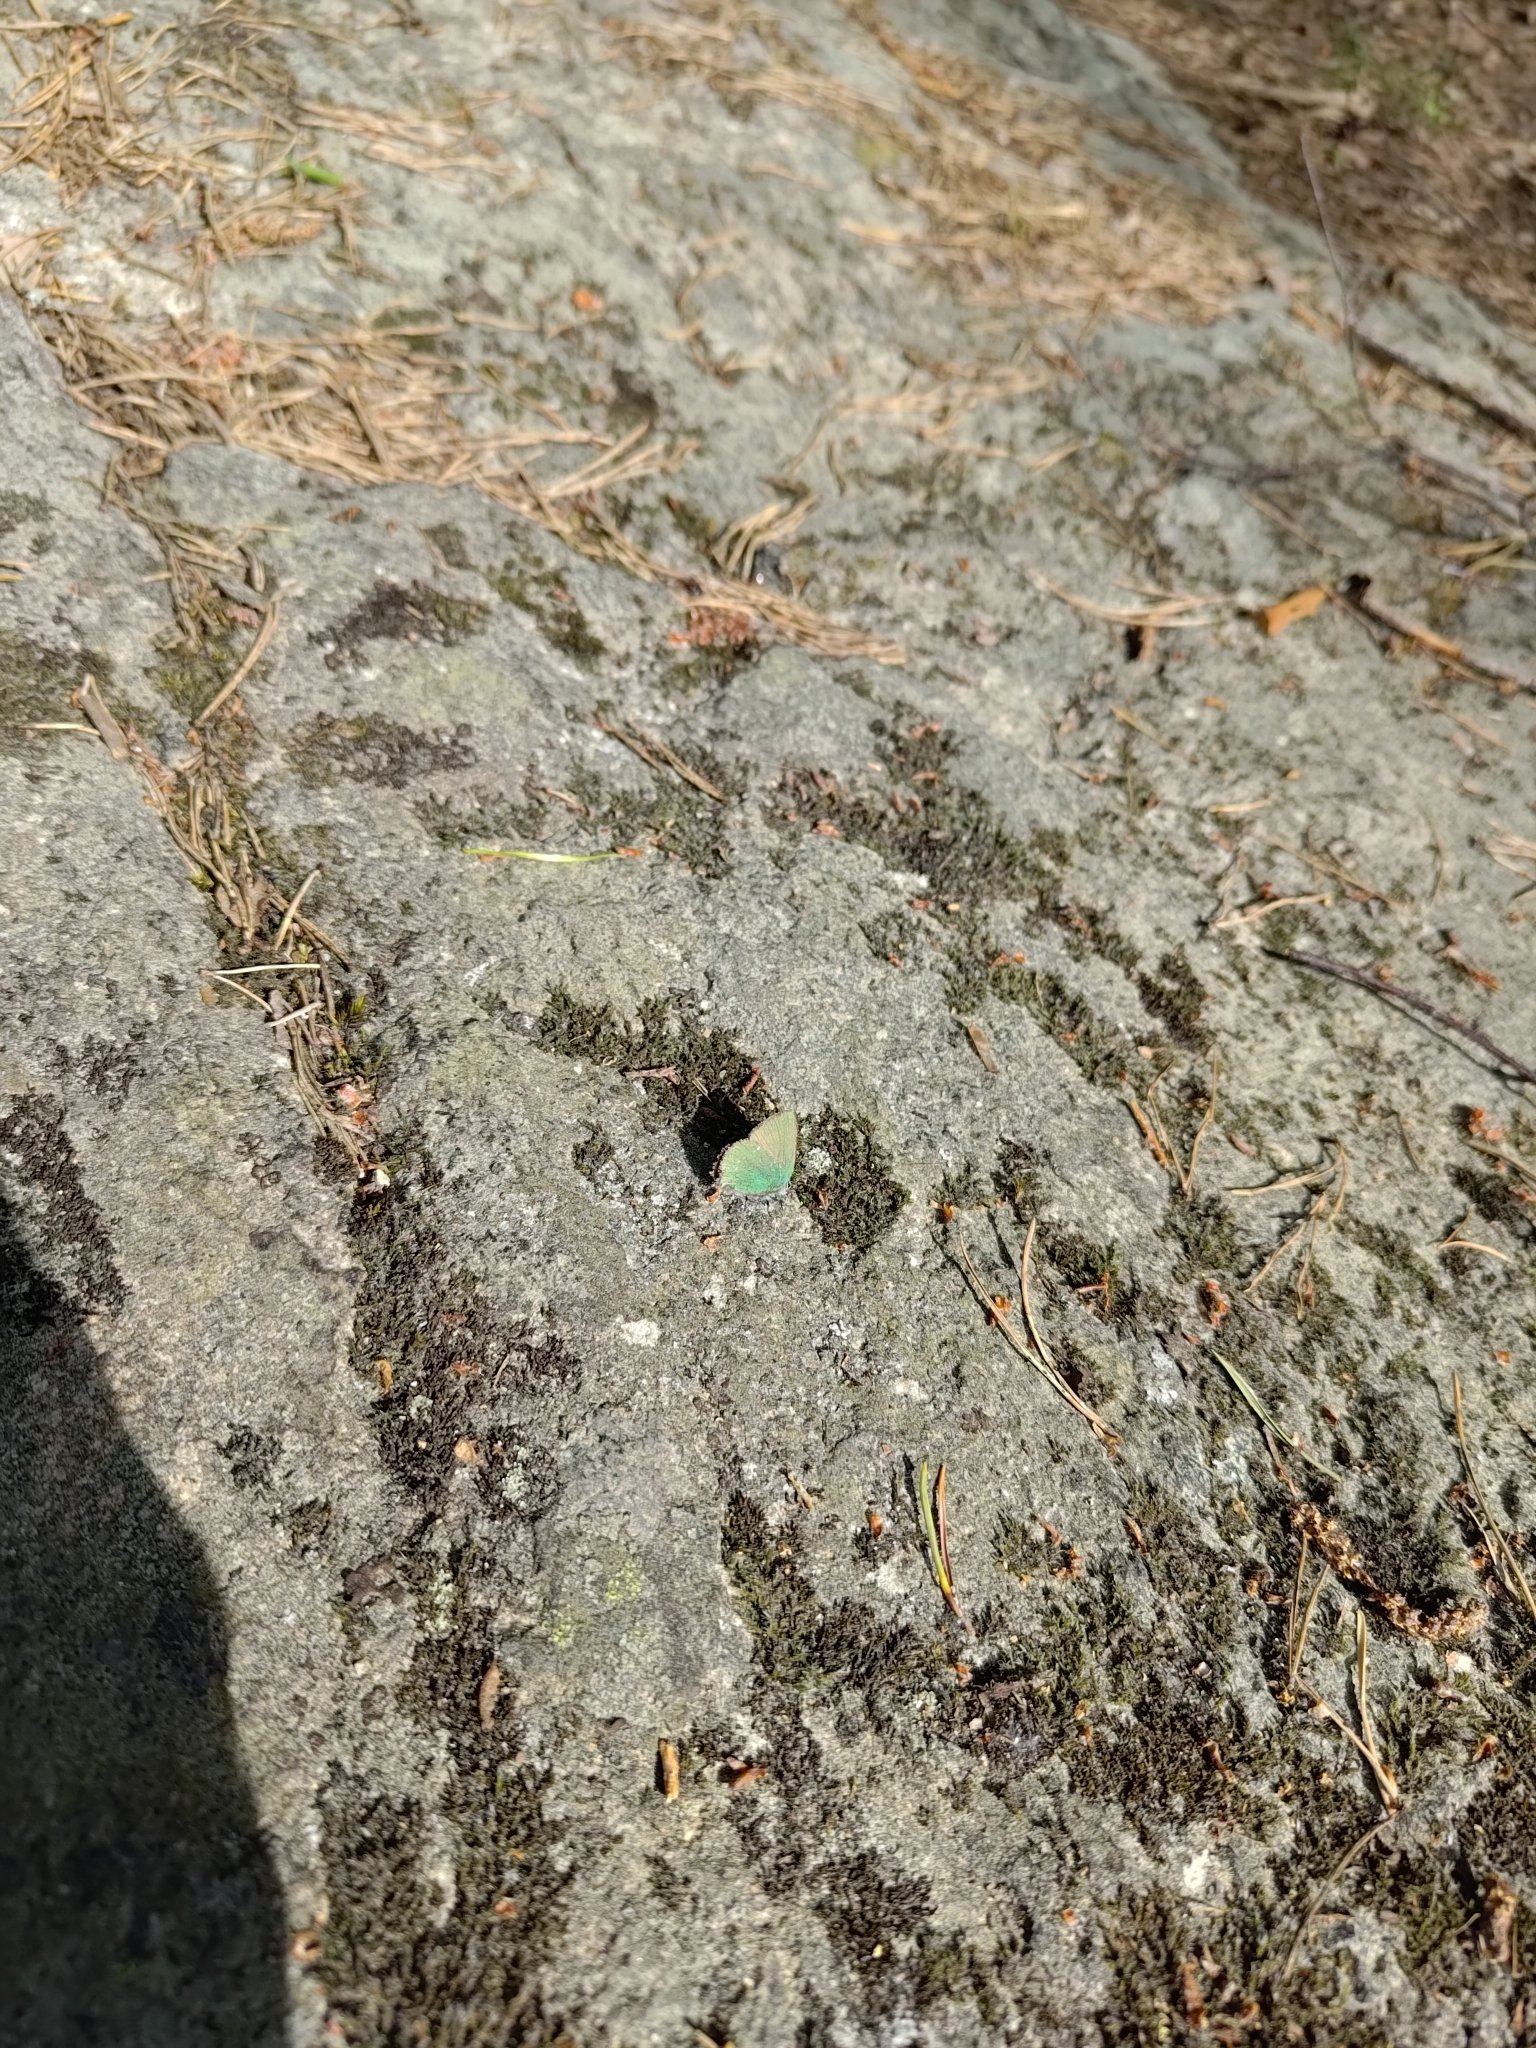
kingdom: Animalia
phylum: Arthropoda
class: Insecta
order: Lepidoptera
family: Lycaenidae
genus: Callophrys
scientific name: Callophrys rubi
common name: Green hairstreak
